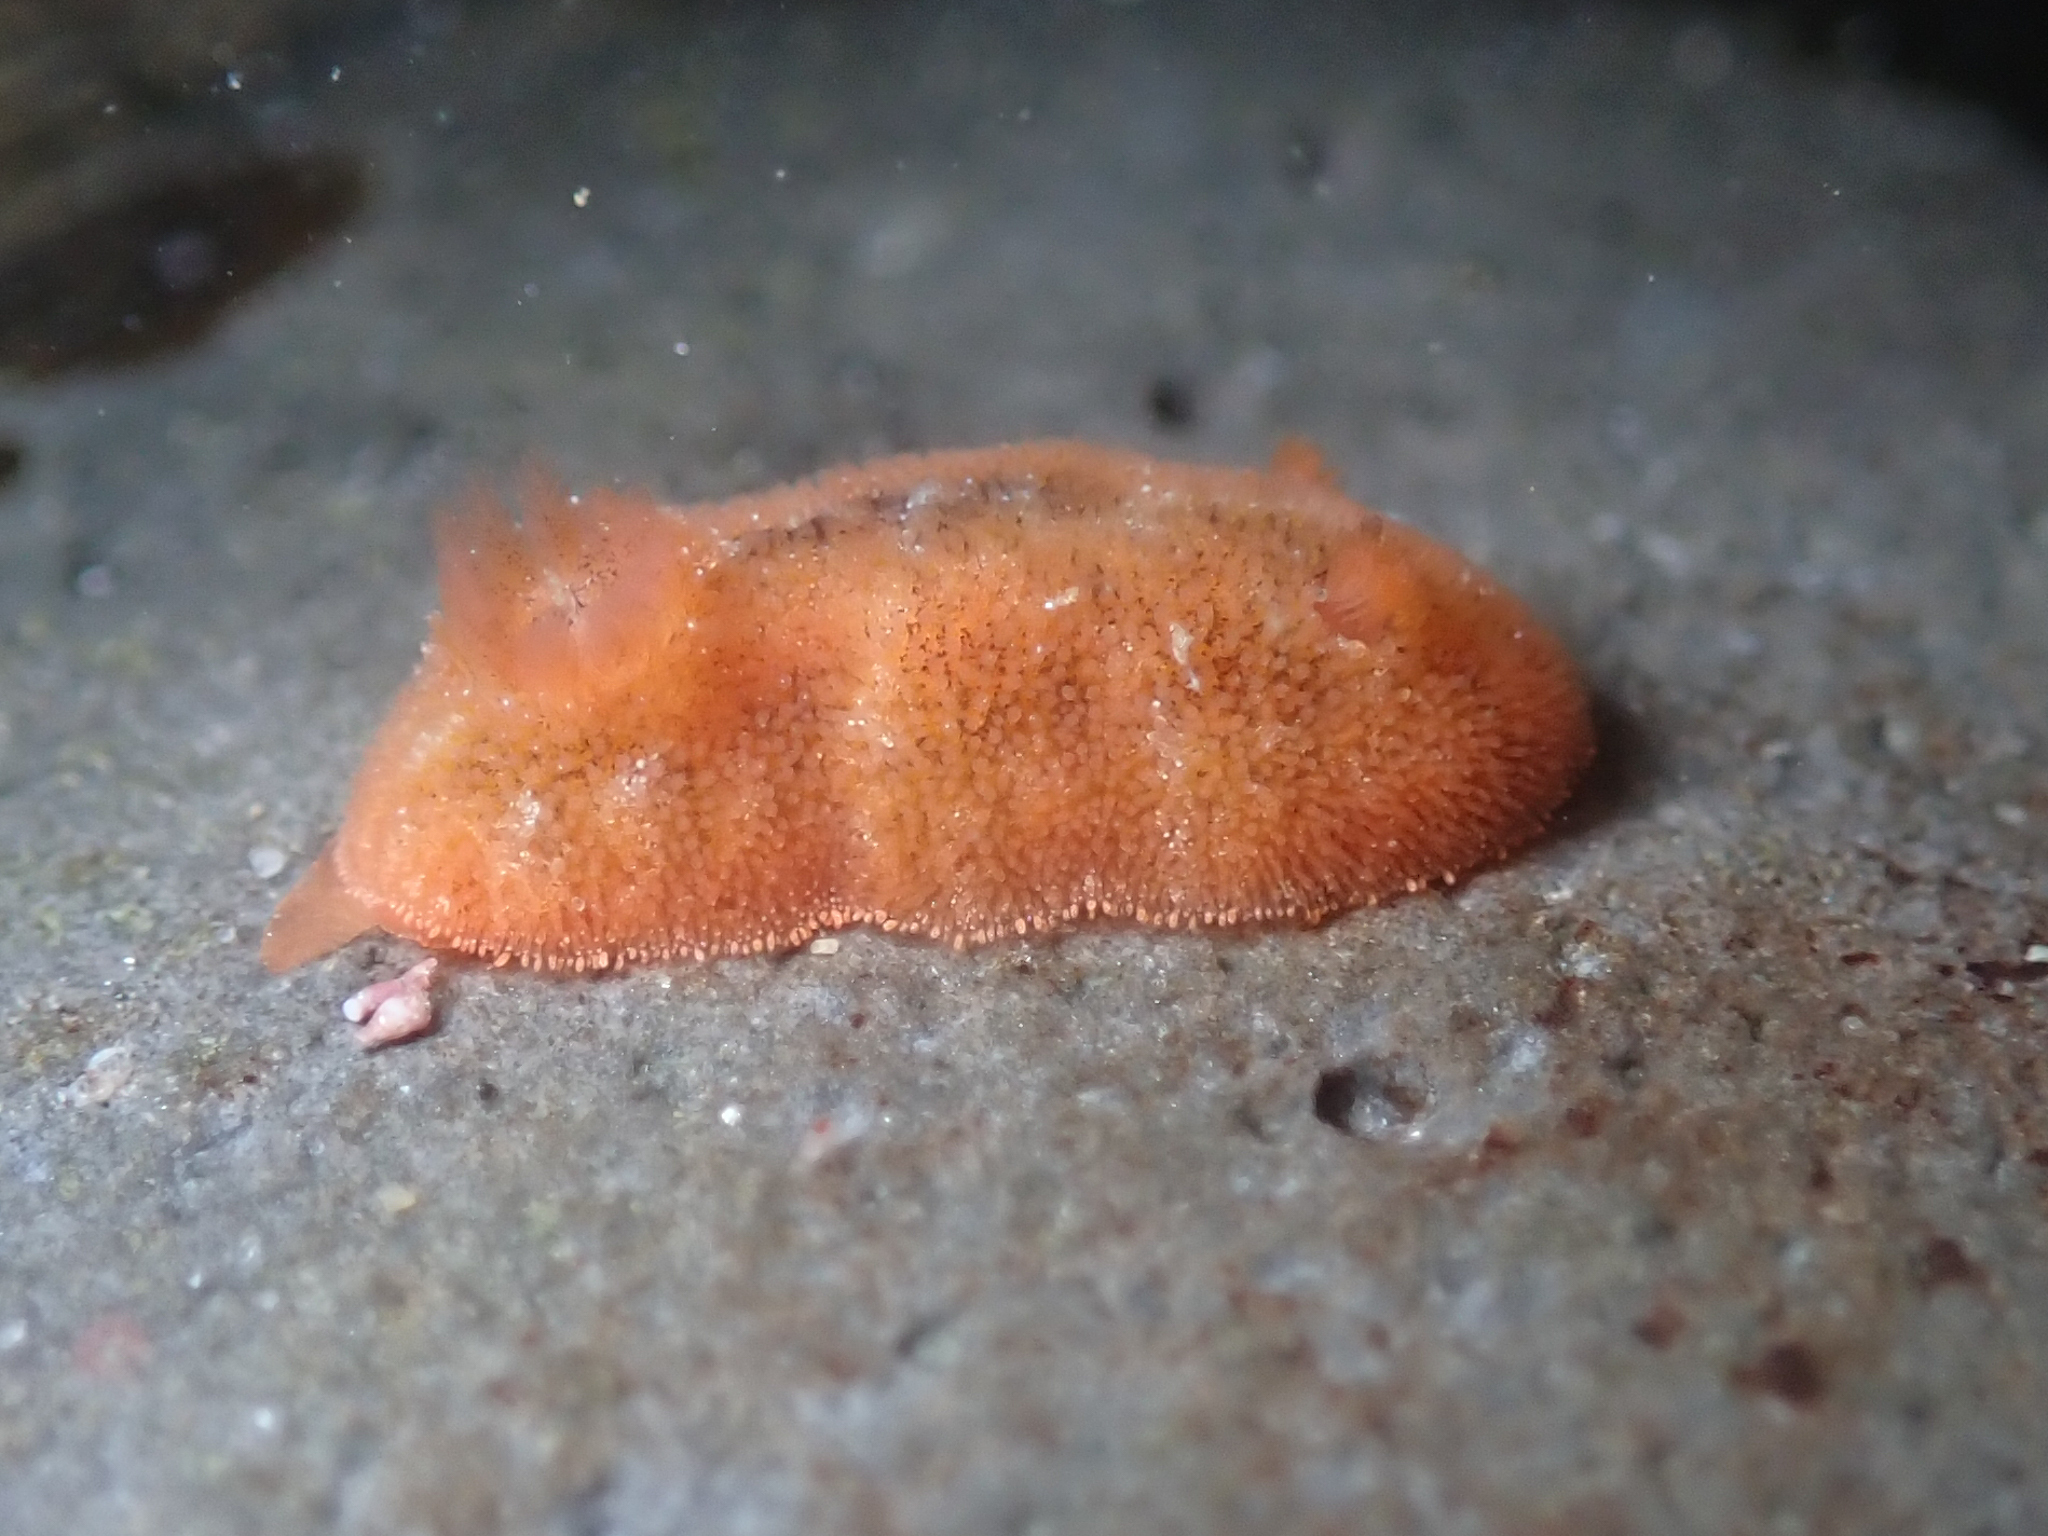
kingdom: Animalia
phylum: Mollusca
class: Gastropoda
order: Nudibranchia
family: Discodorididae
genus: Rostanga
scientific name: Rostanga pulchra
